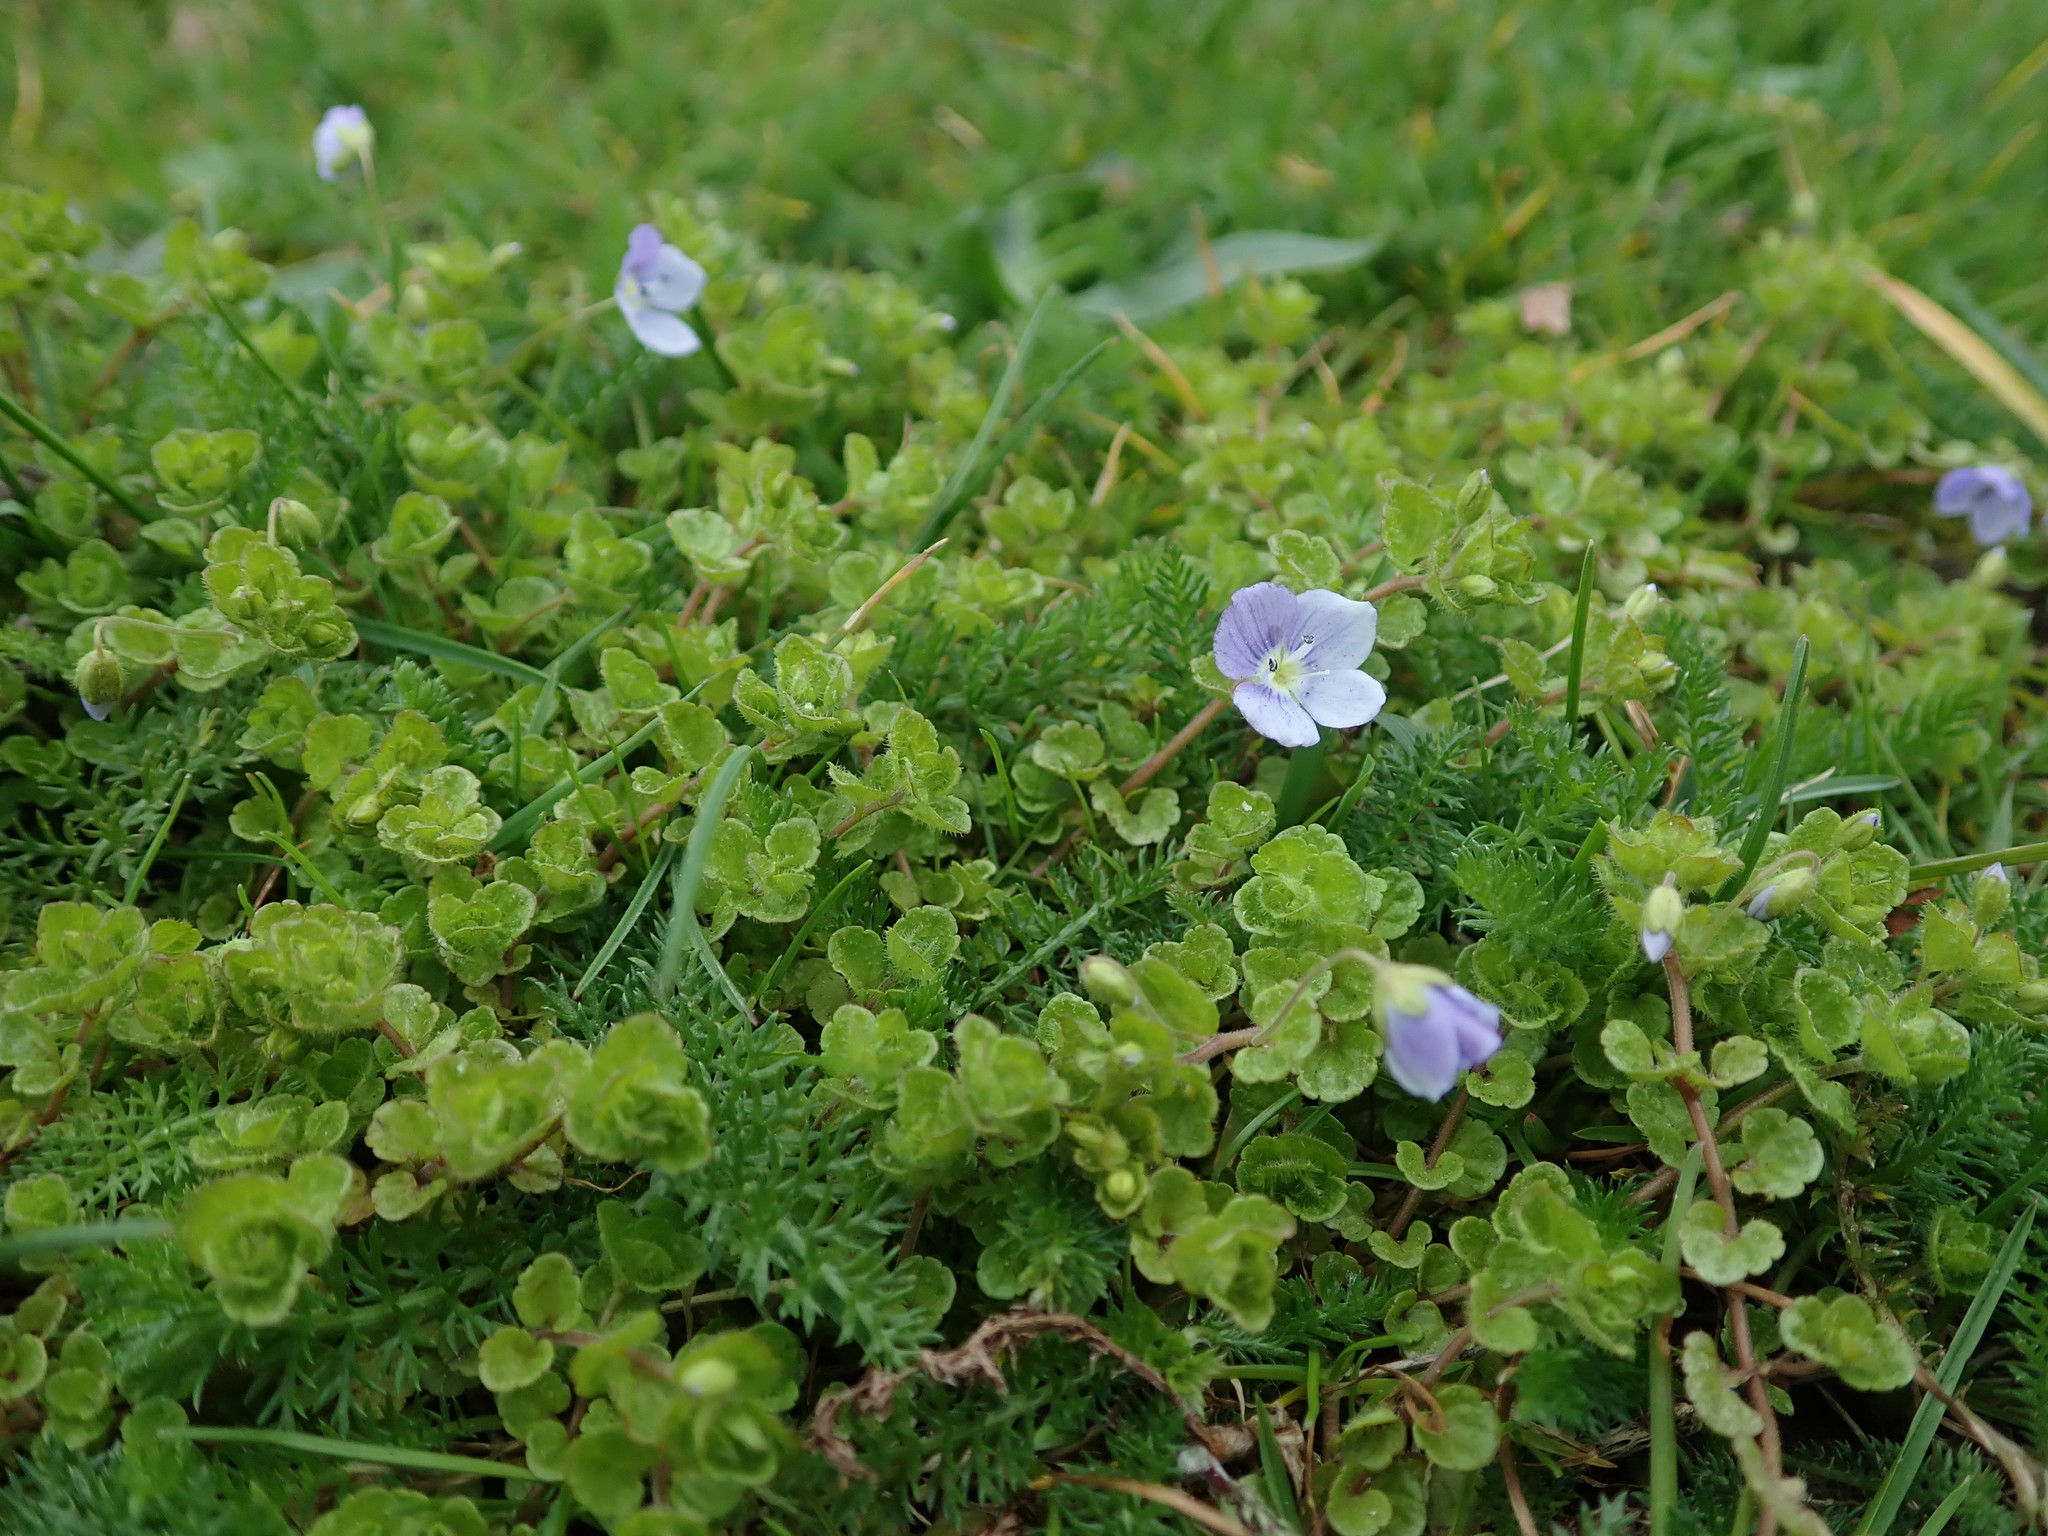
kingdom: Plantae
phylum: Tracheophyta
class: Magnoliopsida
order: Lamiales
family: Plantaginaceae
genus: Veronica
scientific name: Veronica filiformis
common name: Slender speedwell
